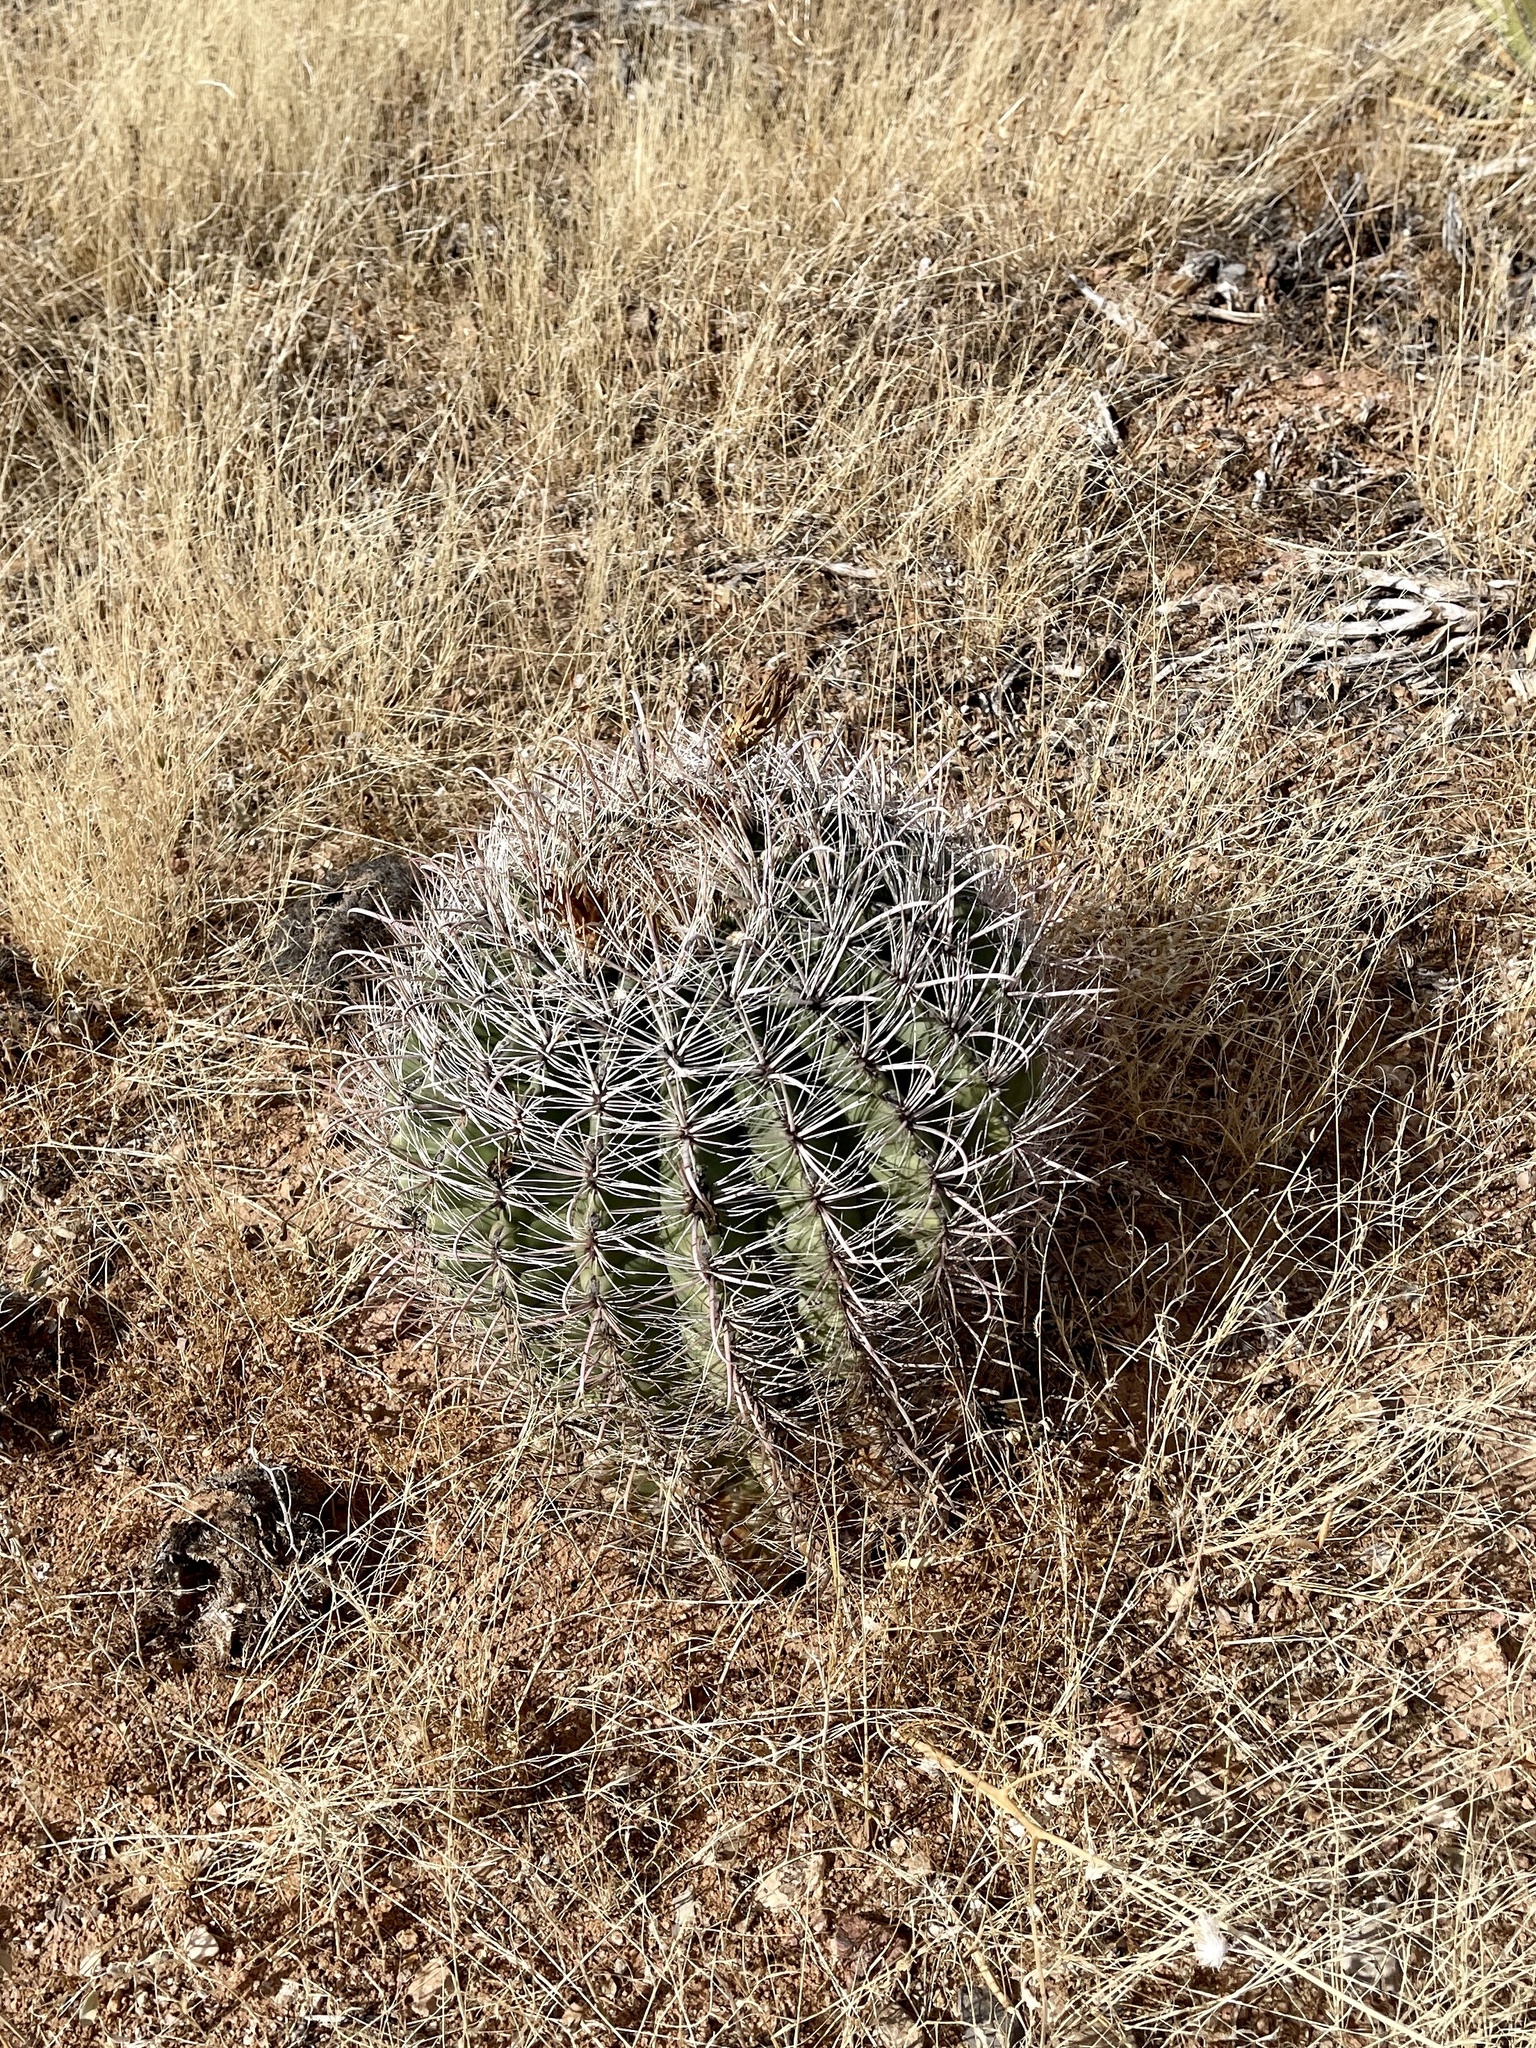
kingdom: Plantae
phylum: Tracheophyta
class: Magnoliopsida
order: Caryophyllales
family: Cactaceae
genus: Ferocactus
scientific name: Ferocactus wislizeni
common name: Candy barrel cactus
